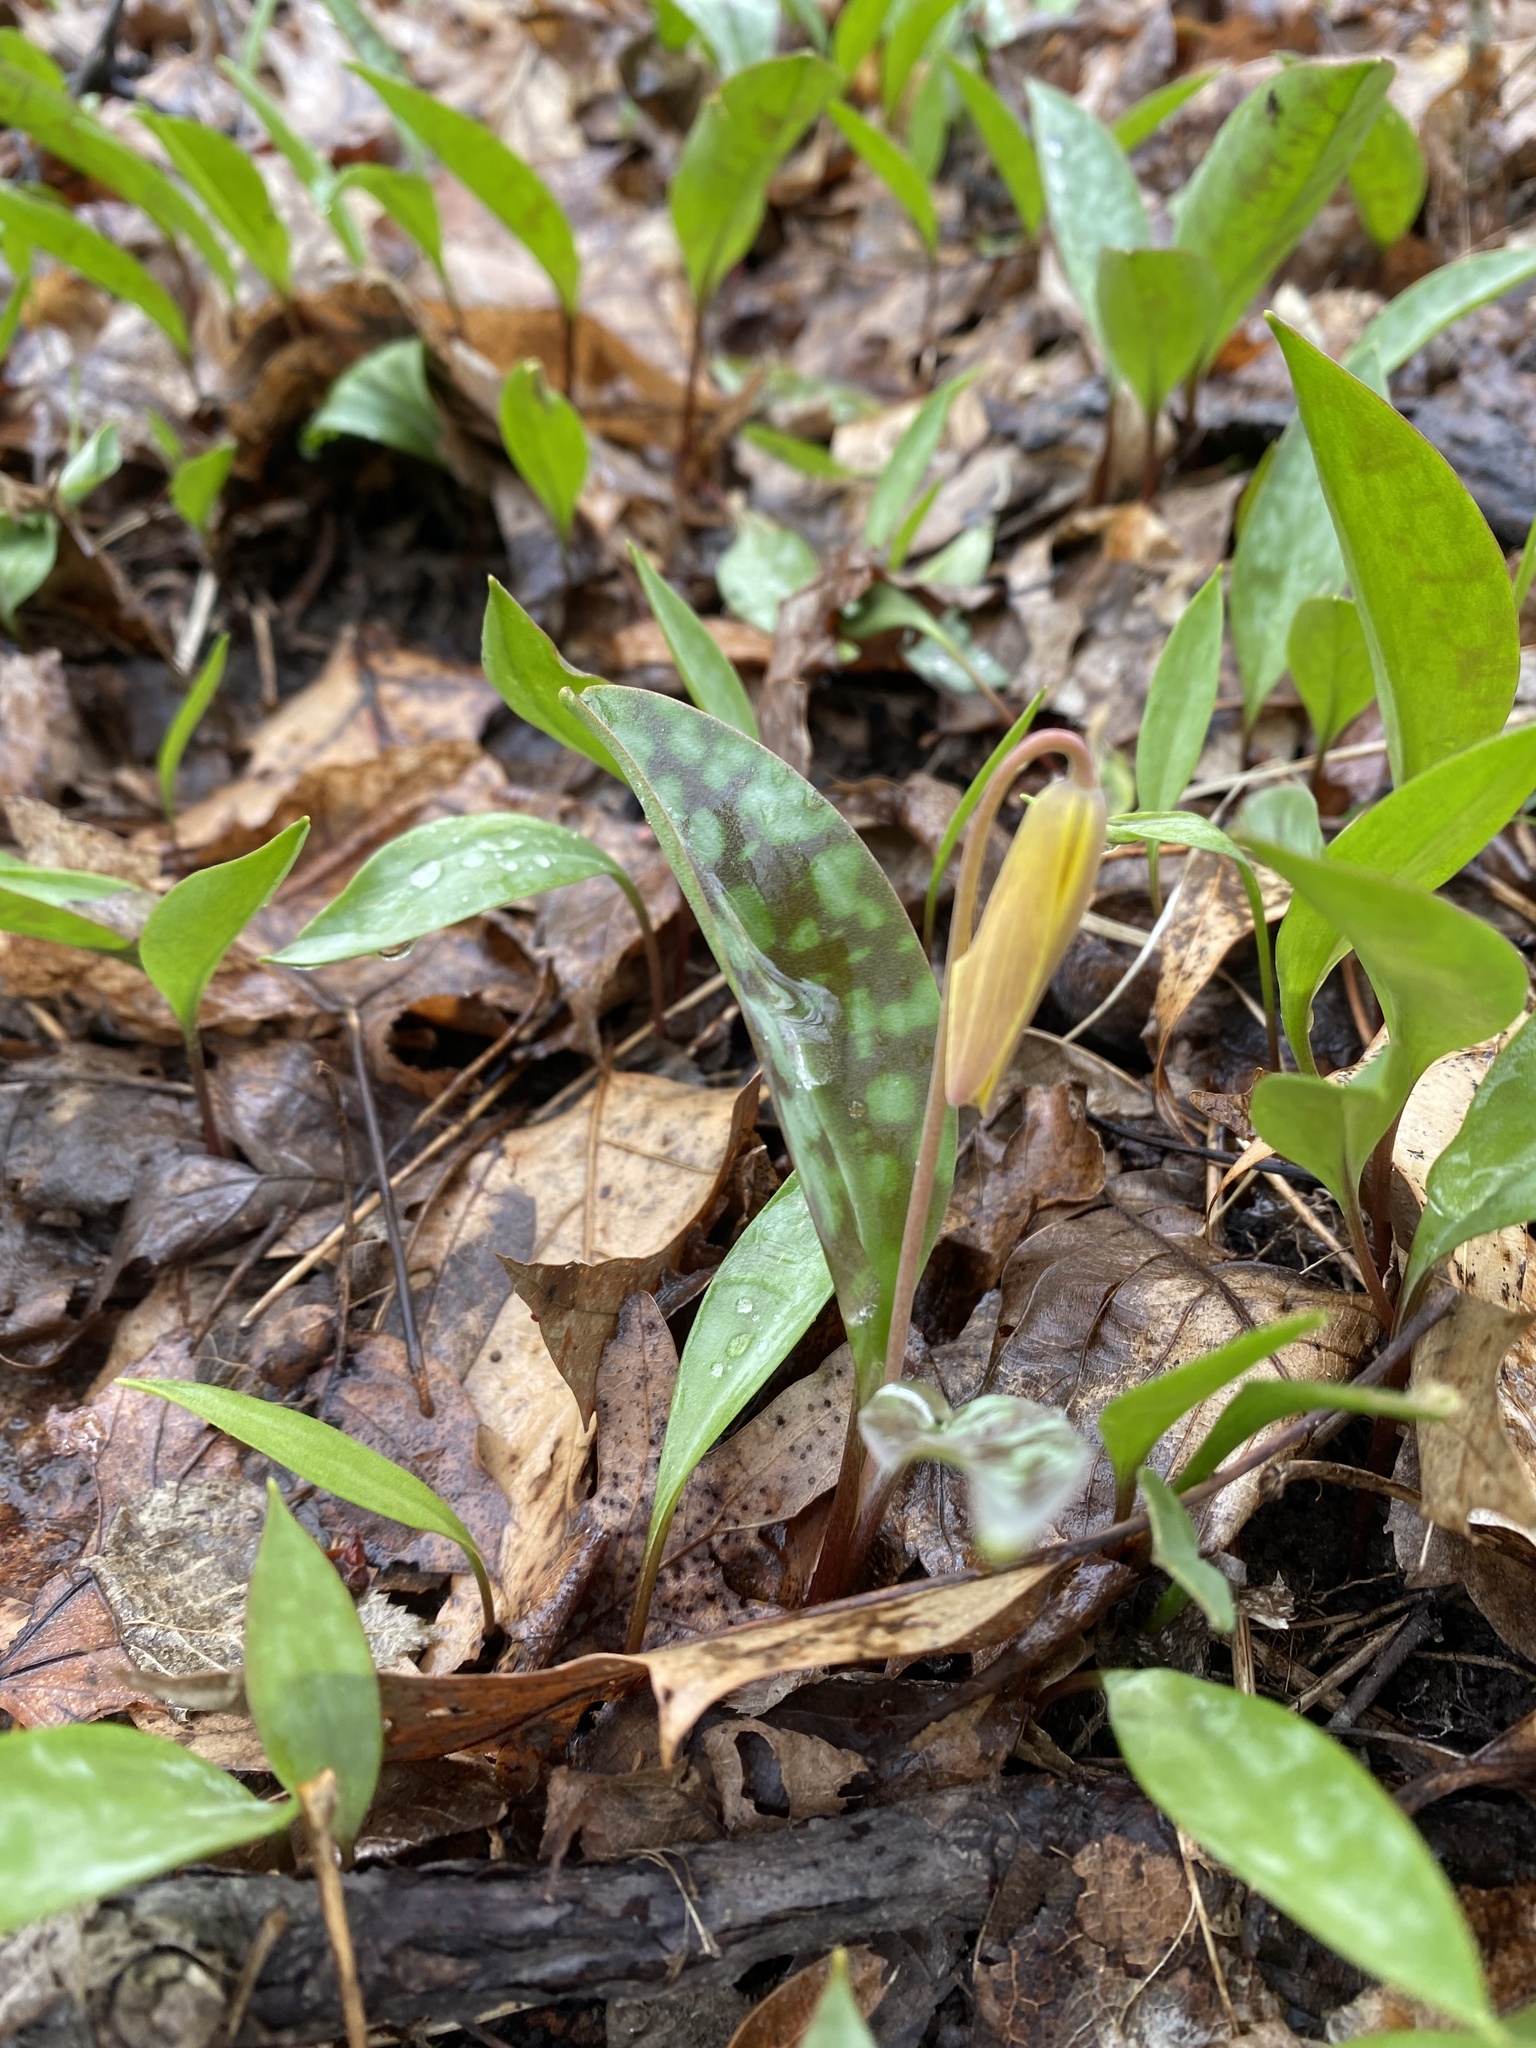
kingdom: Plantae
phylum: Tracheophyta
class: Liliopsida
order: Liliales
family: Liliaceae
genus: Erythronium
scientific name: Erythronium americanum
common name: Yellow adder's-tongue
